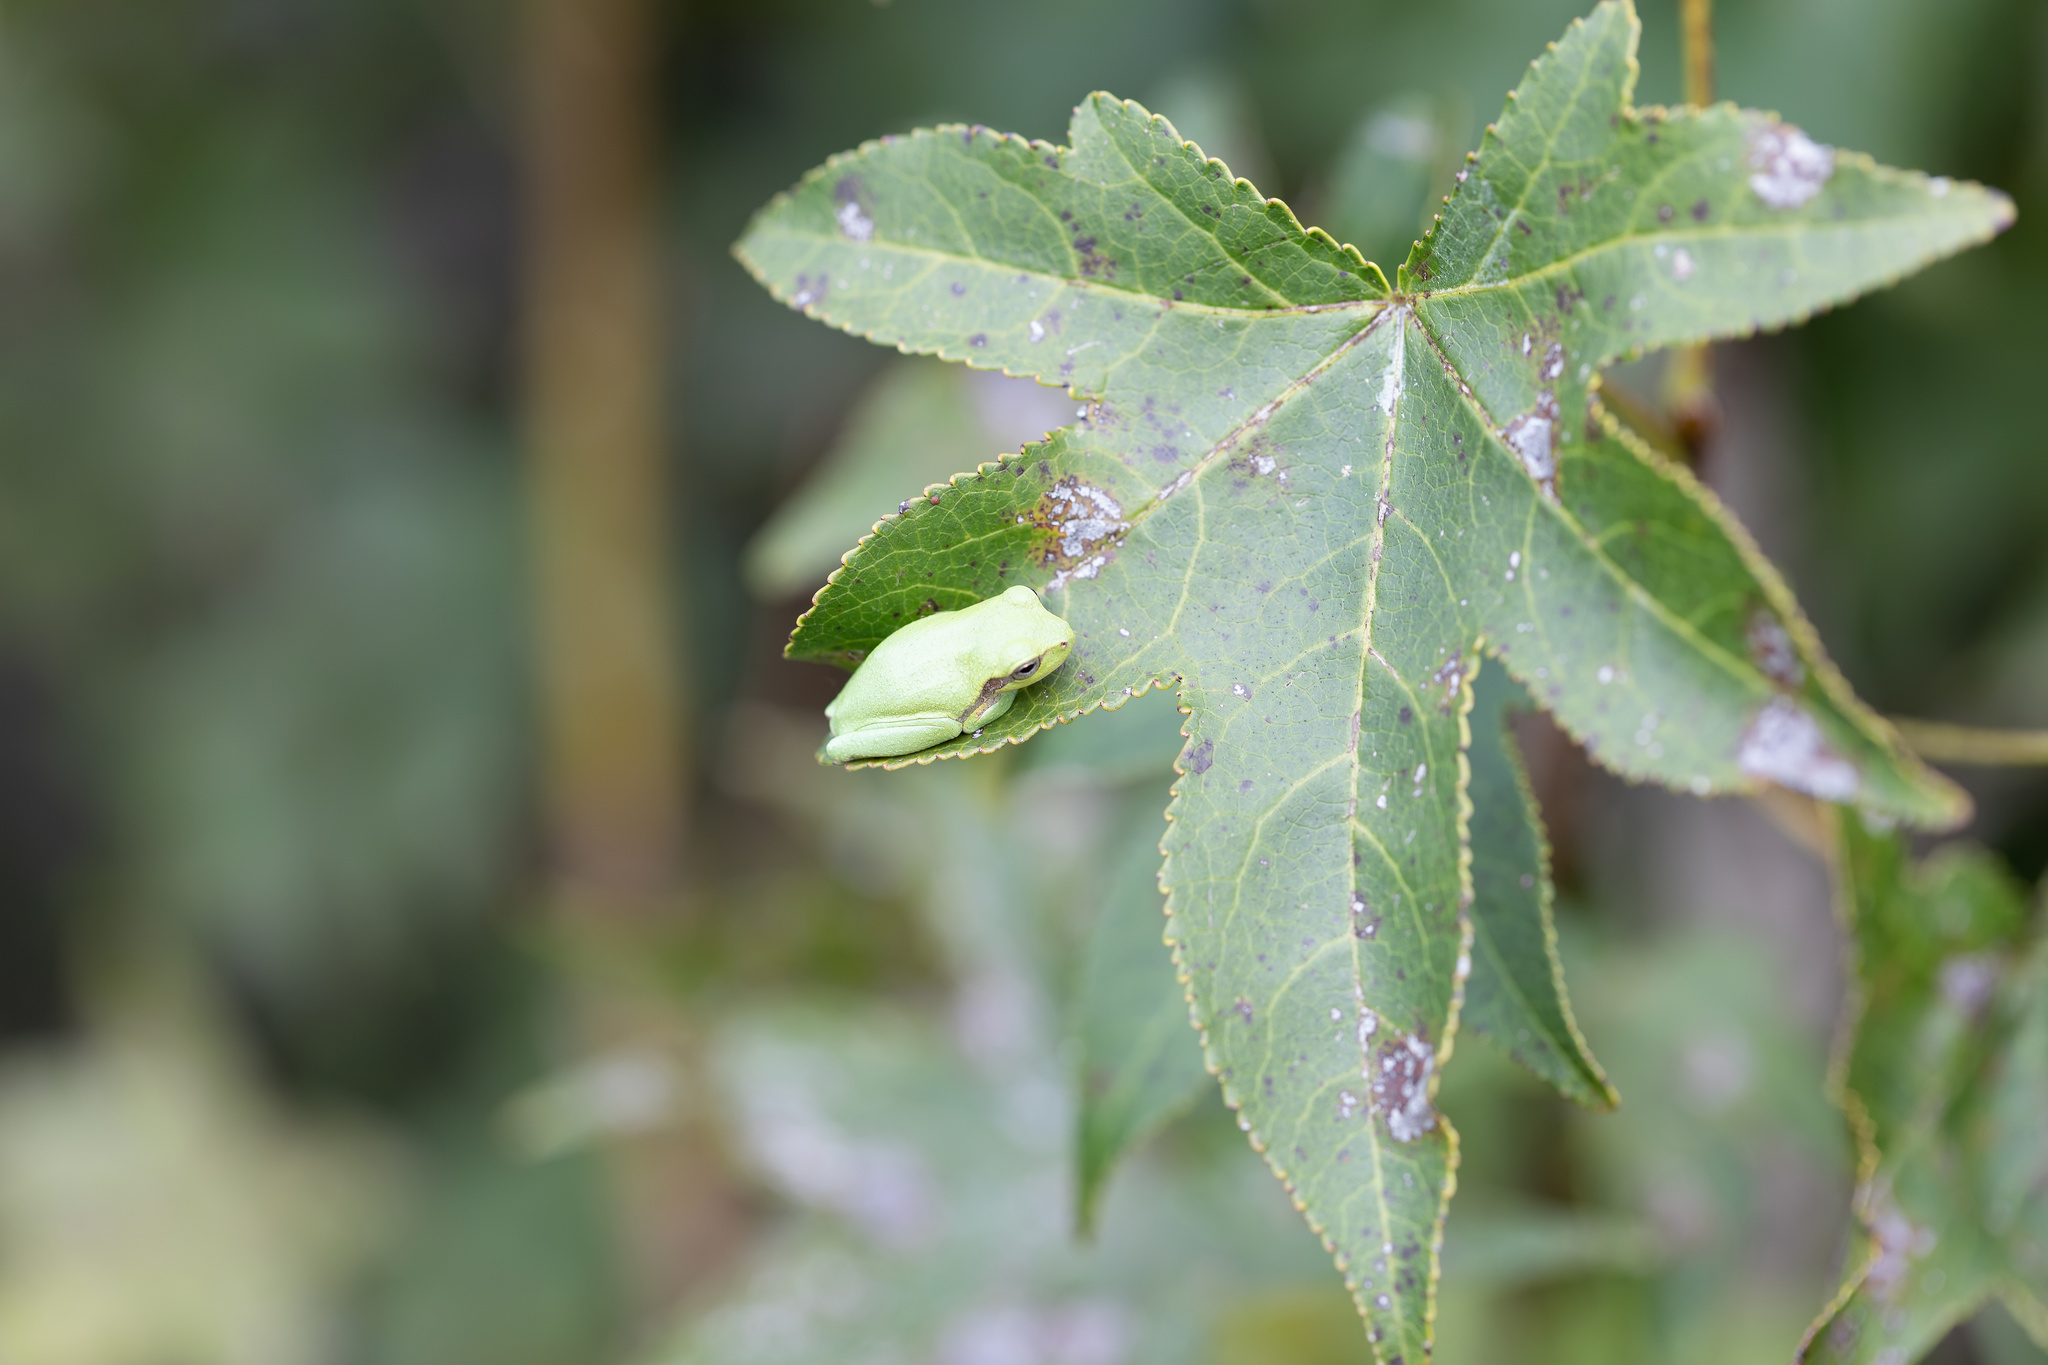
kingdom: Animalia
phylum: Chordata
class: Amphibia
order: Anura
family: Hylidae
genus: Hyla
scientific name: Hyla femoralis
